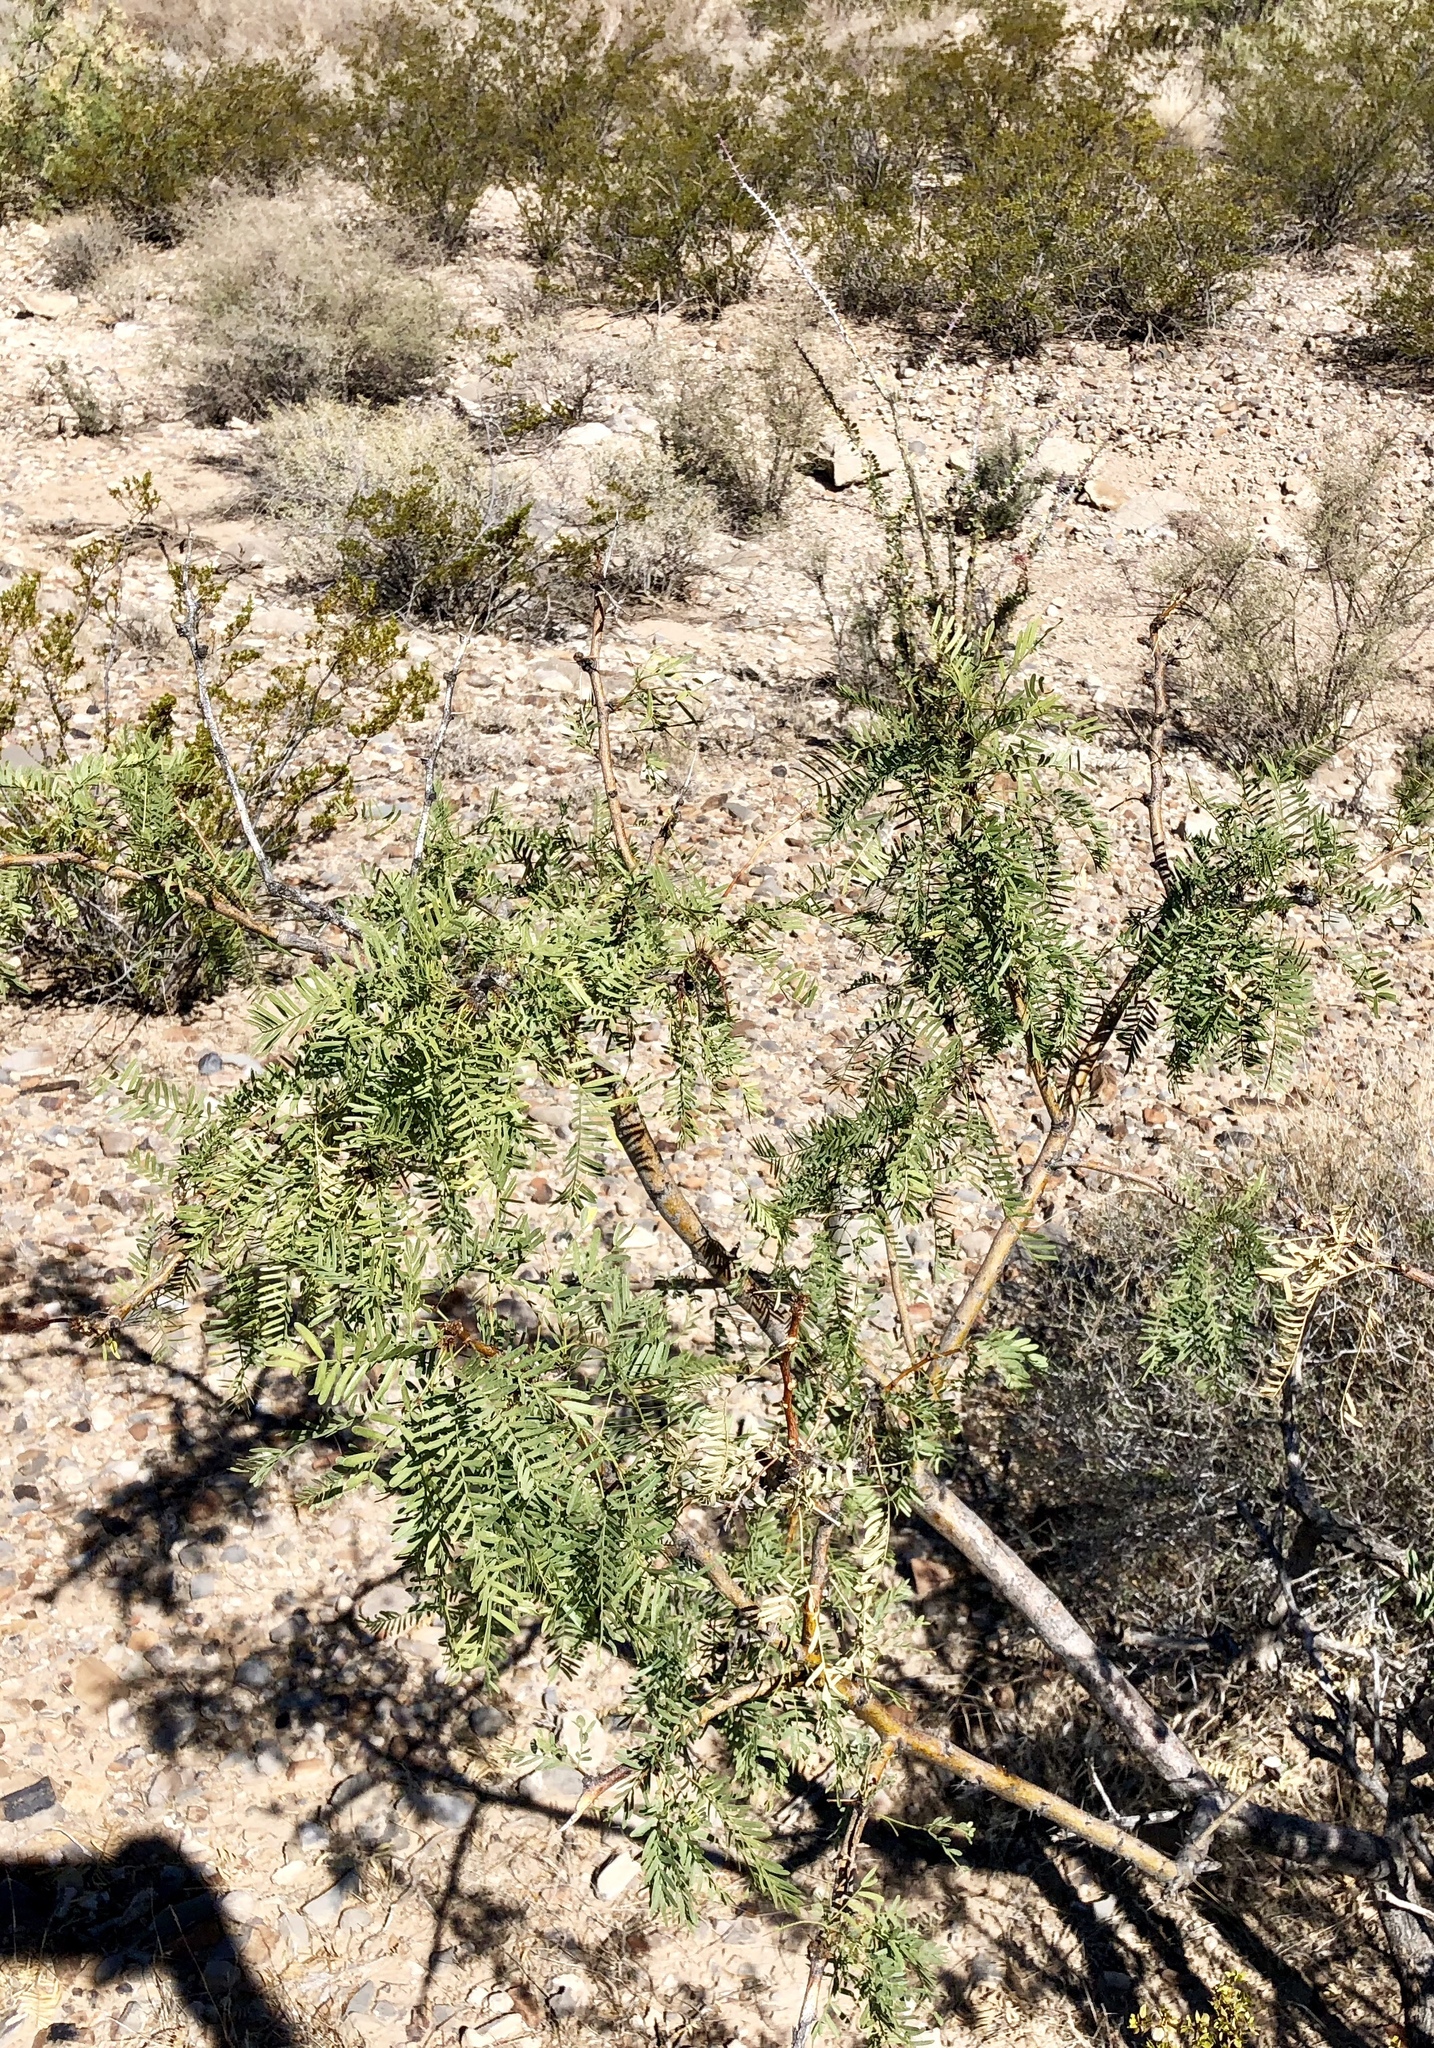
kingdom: Plantae
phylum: Tracheophyta
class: Magnoliopsida
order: Fabales
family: Fabaceae
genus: Prosopis
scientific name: Prosopis glandulosa
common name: Honey mesquite
